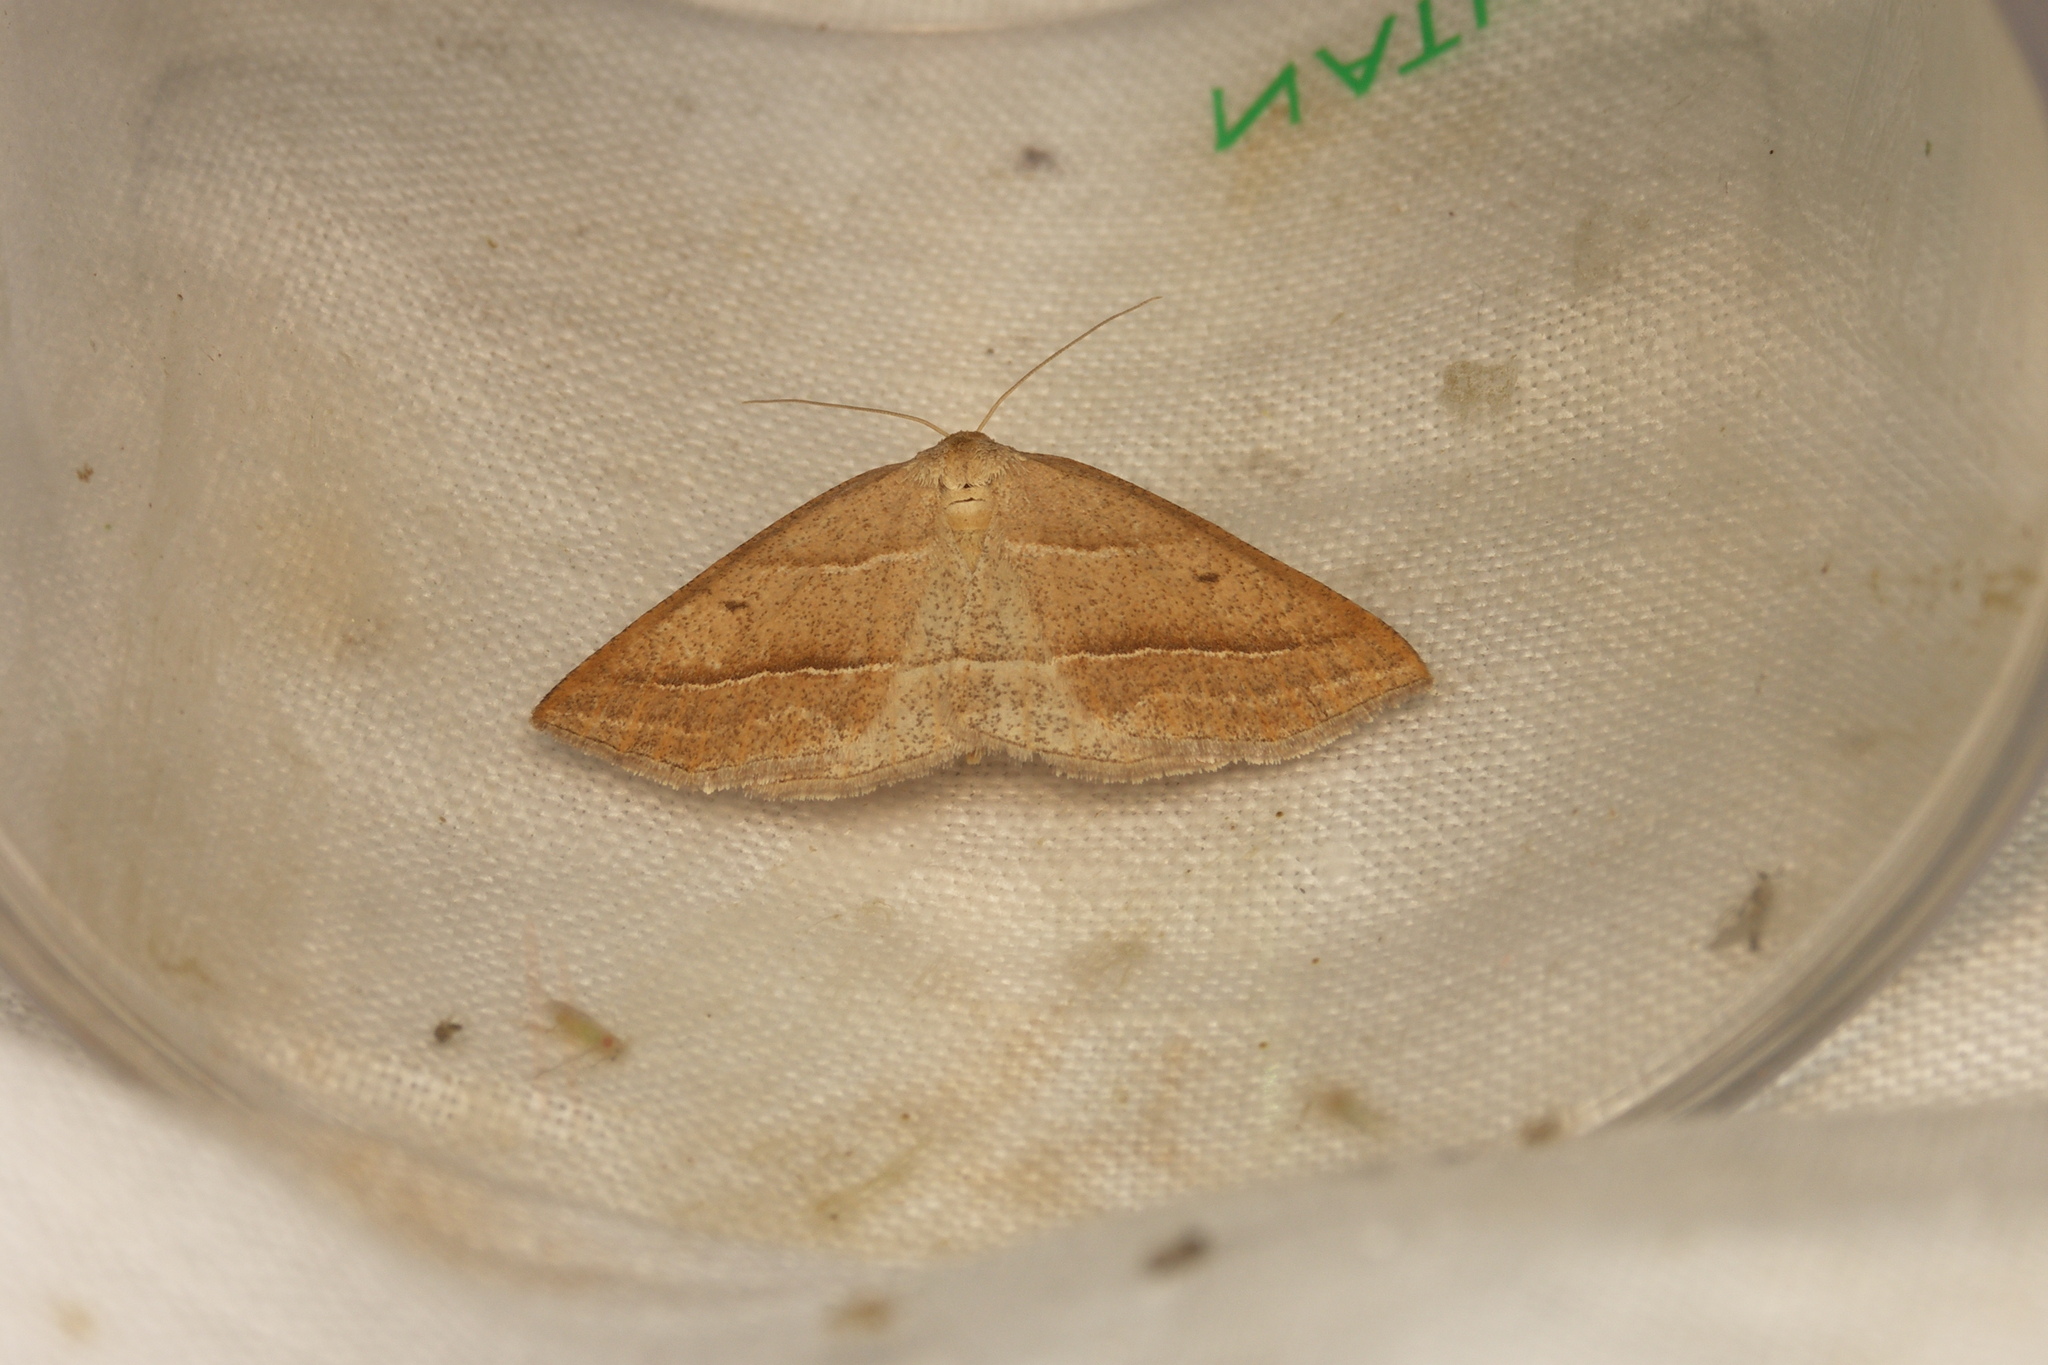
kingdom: Animalia
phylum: Arthropoda
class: Insecta
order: Lepidoptera
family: Pterophoridae
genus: Pterophorus
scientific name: Pterophorus Petrophora chlorosata
